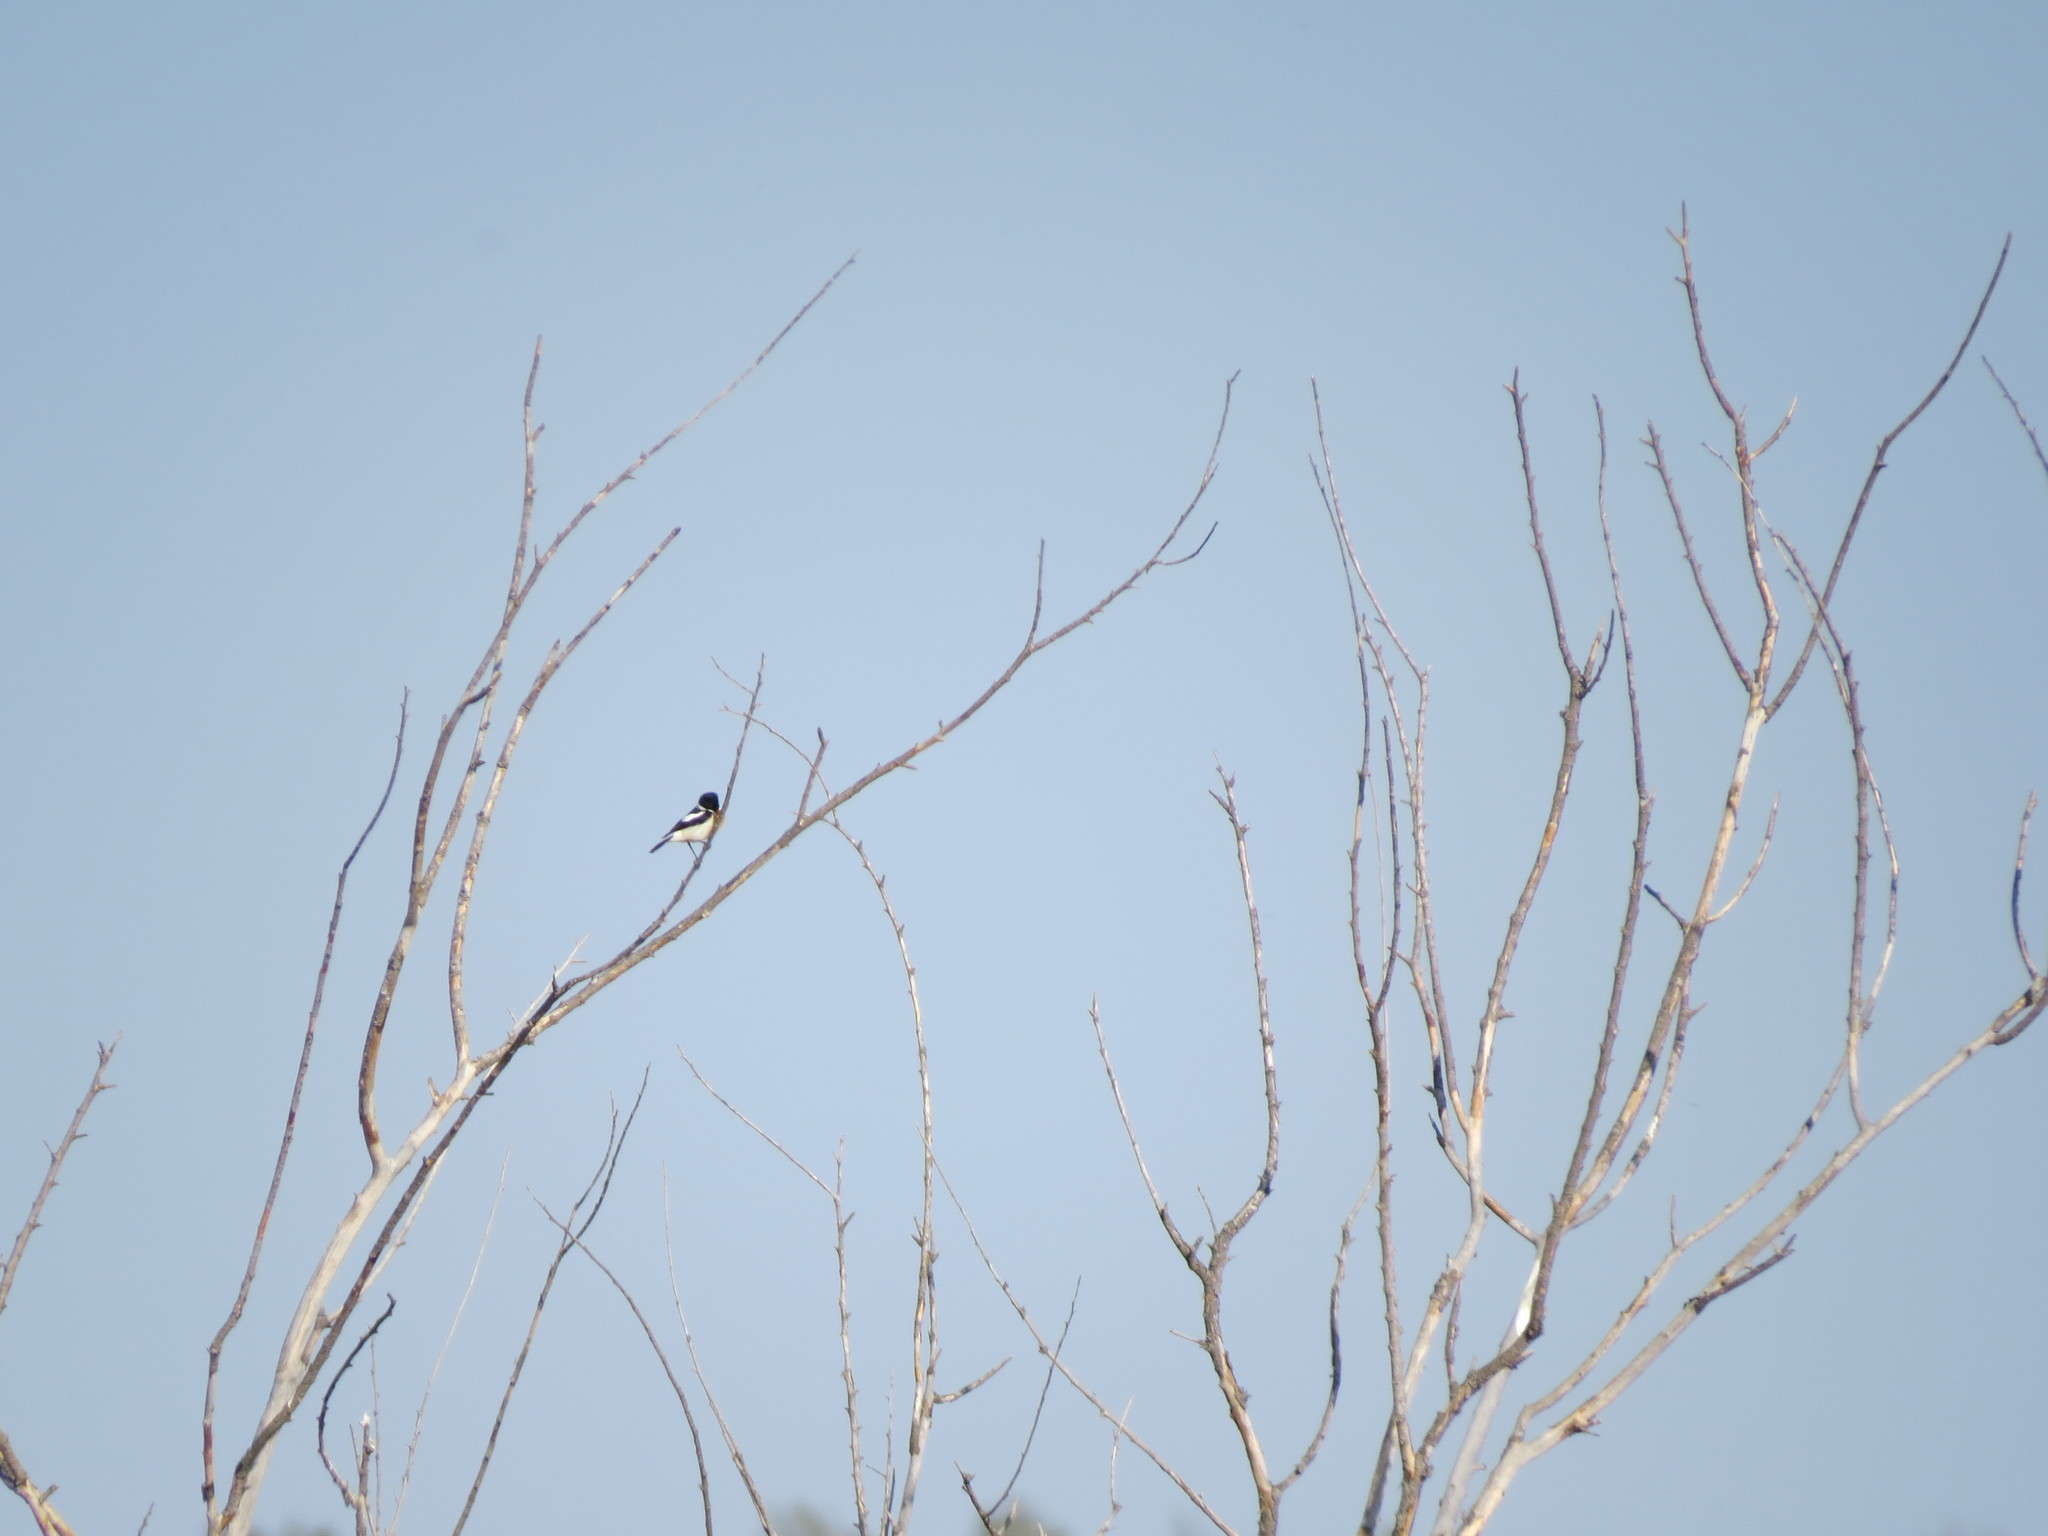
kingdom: Animalia
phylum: Chordata
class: Aves
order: Passeriformes
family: Muscicapidae
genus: Saxicola
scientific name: Saxicola maurus
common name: Siberian stonechat
